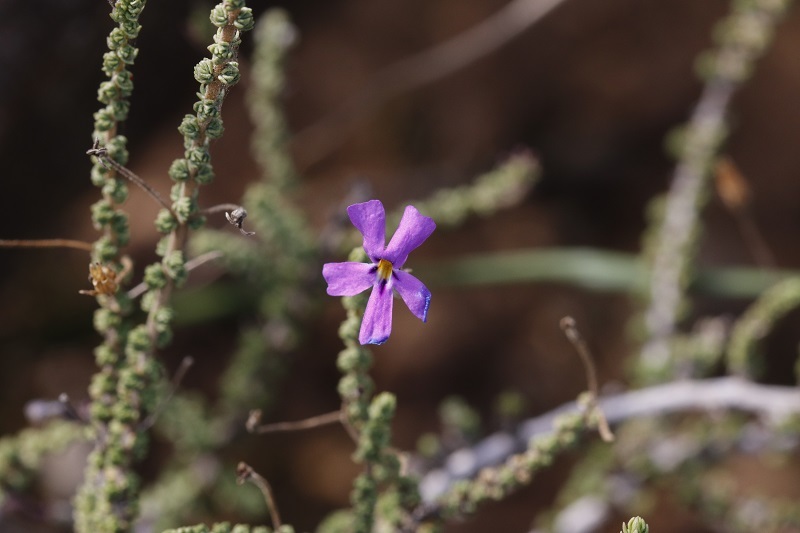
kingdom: Plantae
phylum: Tracheophyta
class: Magnoliopsida
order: Lamiales
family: Scrophulariaceae
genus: Jamesbrittenia
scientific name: Jamesbrittenia microphylla
